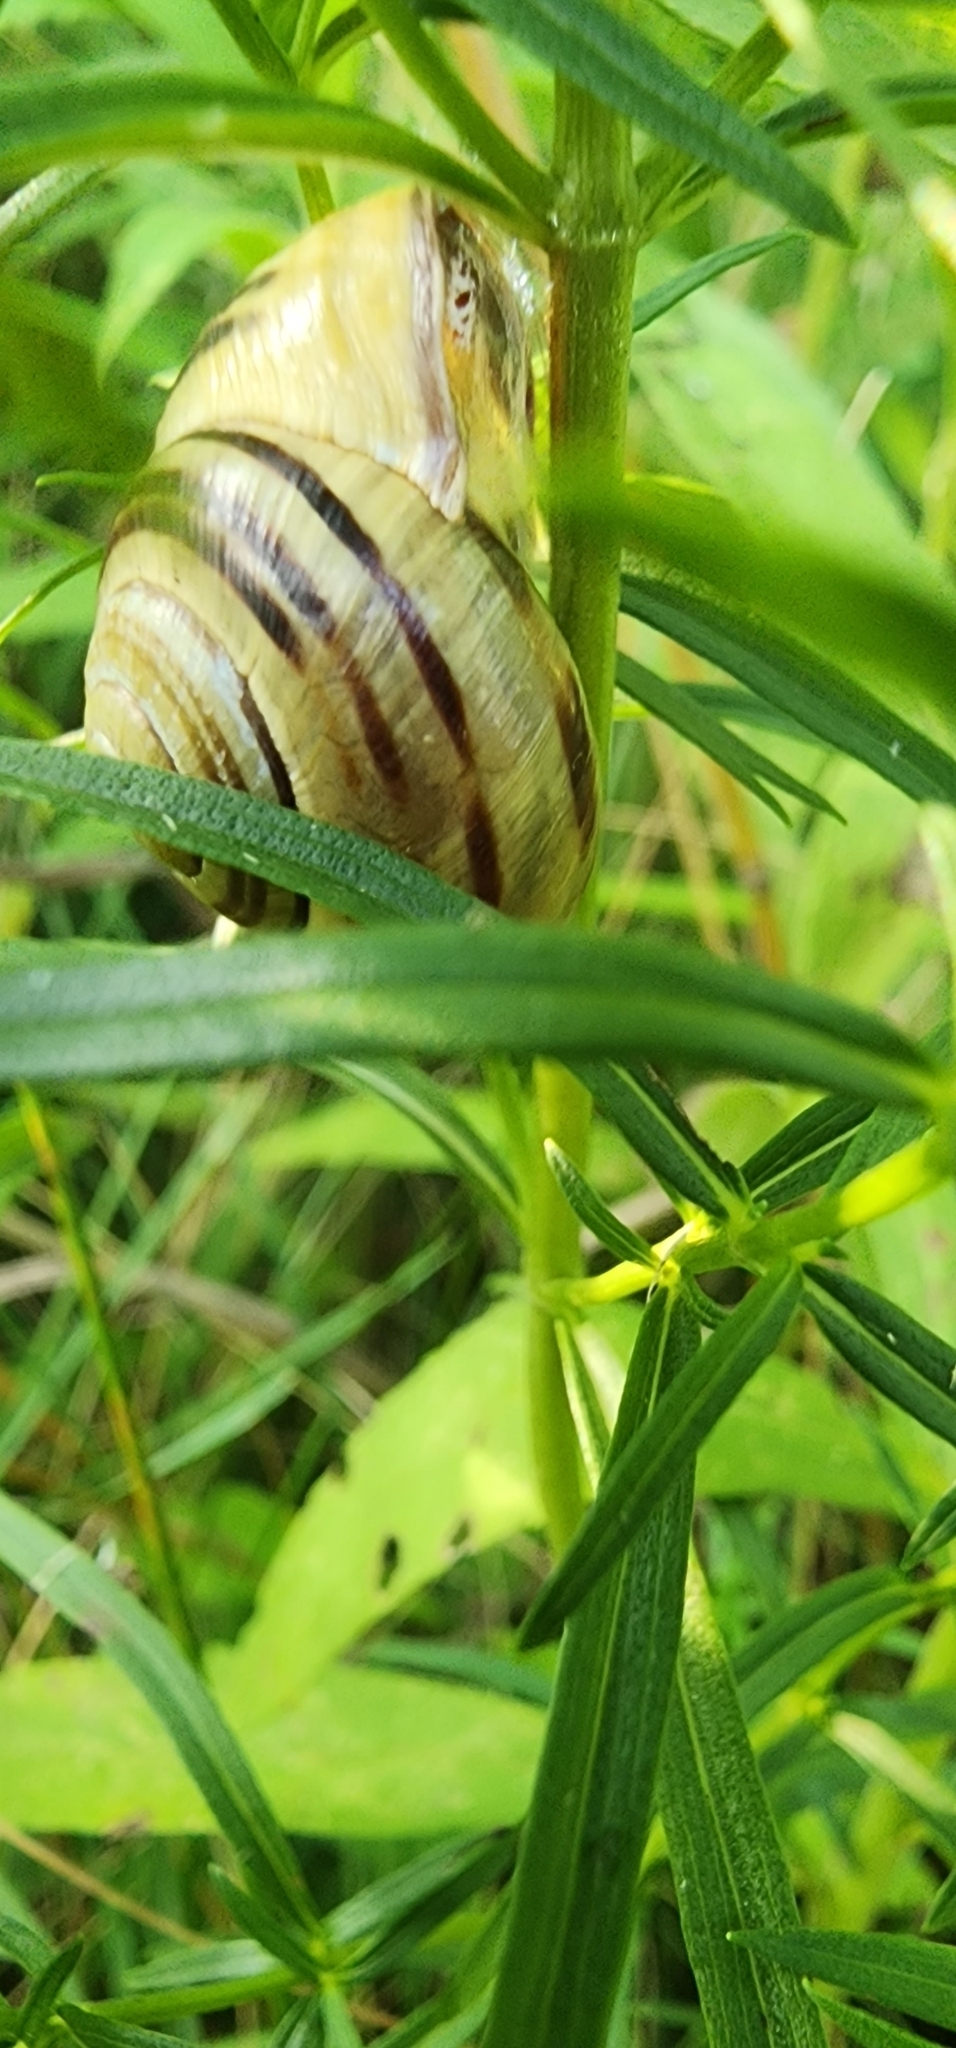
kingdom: Animalia
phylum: Mollusca
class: Gastropoda
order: Stylommatophora
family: Helicidae
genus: Cepaea
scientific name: Cepaea nemoralis
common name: Grovesnail
